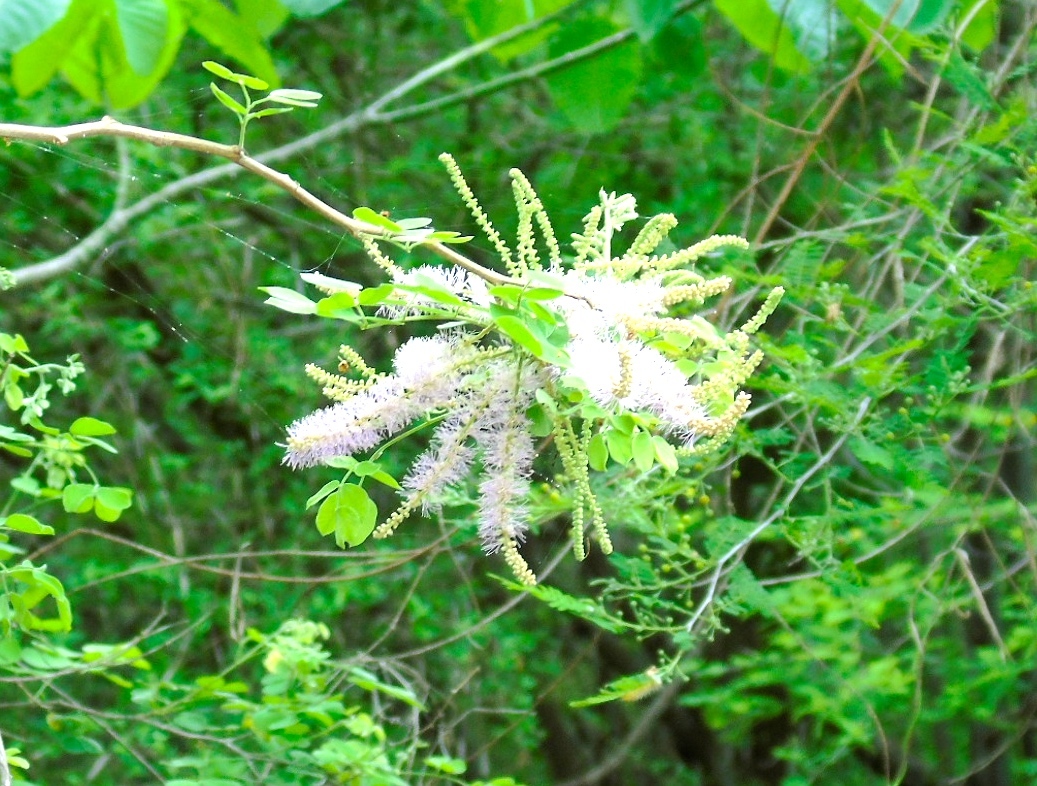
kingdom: Plantae
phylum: Tracheophyta
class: Magnoliopsida
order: Fabales
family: Fabaceae
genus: Mimosa
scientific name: Mimosa distachya
